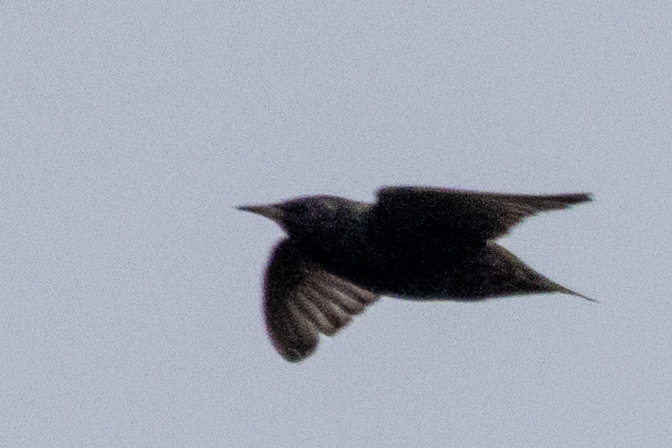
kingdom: Animalia
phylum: Chordata
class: Aves
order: Passeriformes
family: Sturnidae
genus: Sturnus
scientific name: Sturnus vulgaris
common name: Common starling
